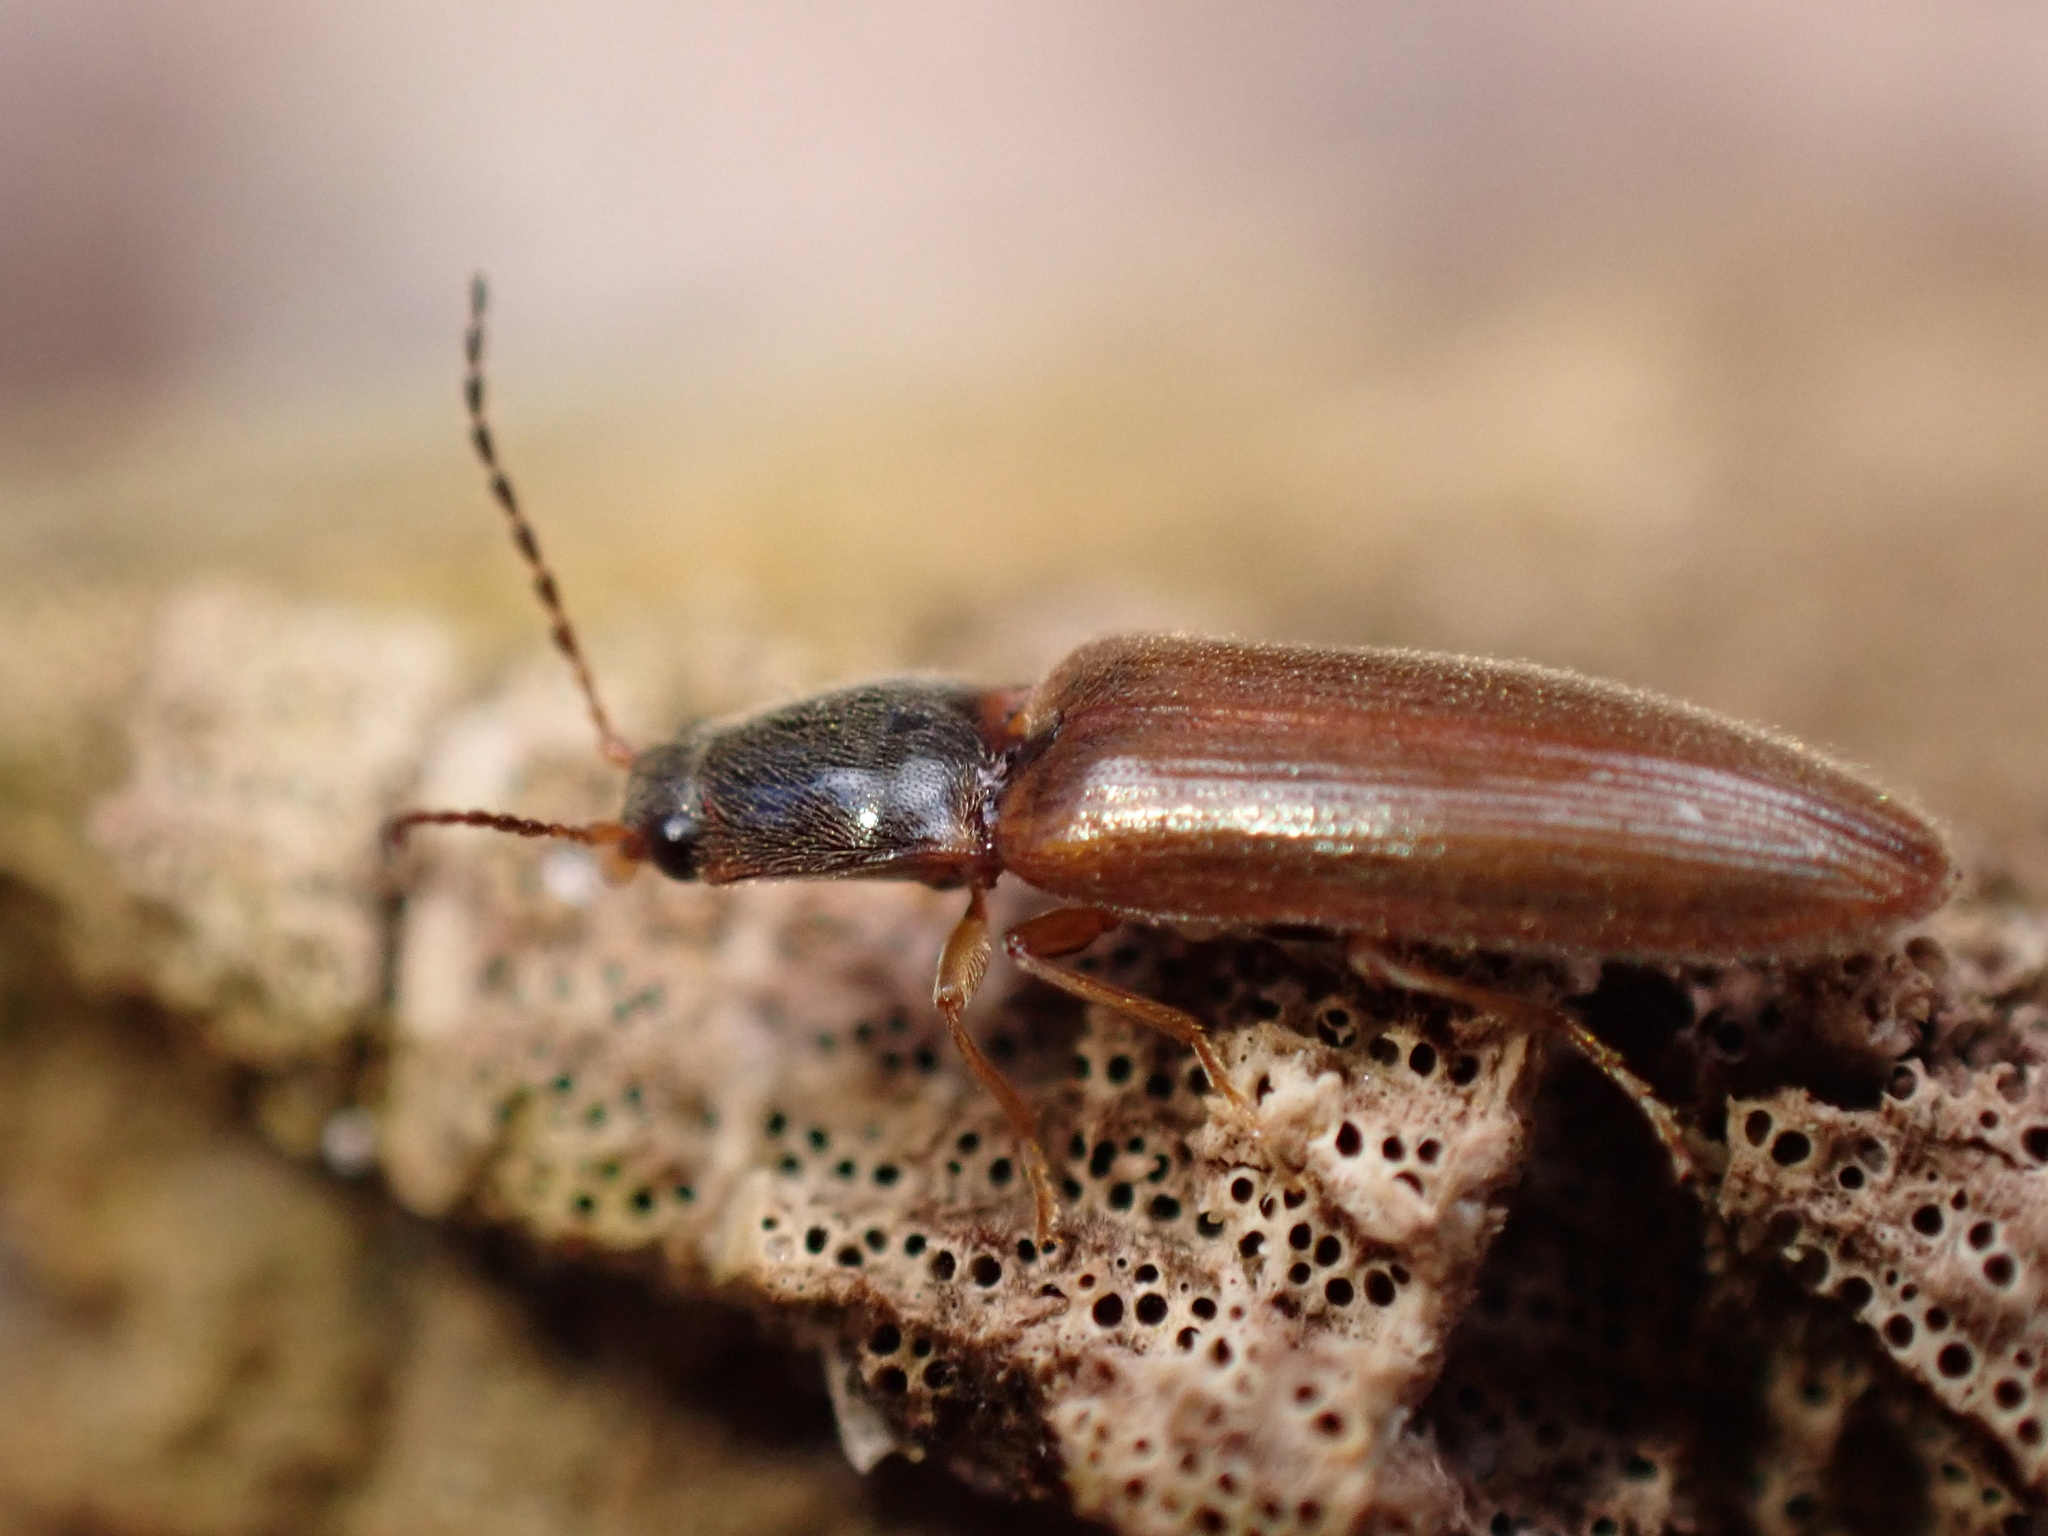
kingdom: Animalia
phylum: Arthropoda
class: Insecta
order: Coleoptera
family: Elateridae
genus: Athous
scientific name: Athous subfuscus
